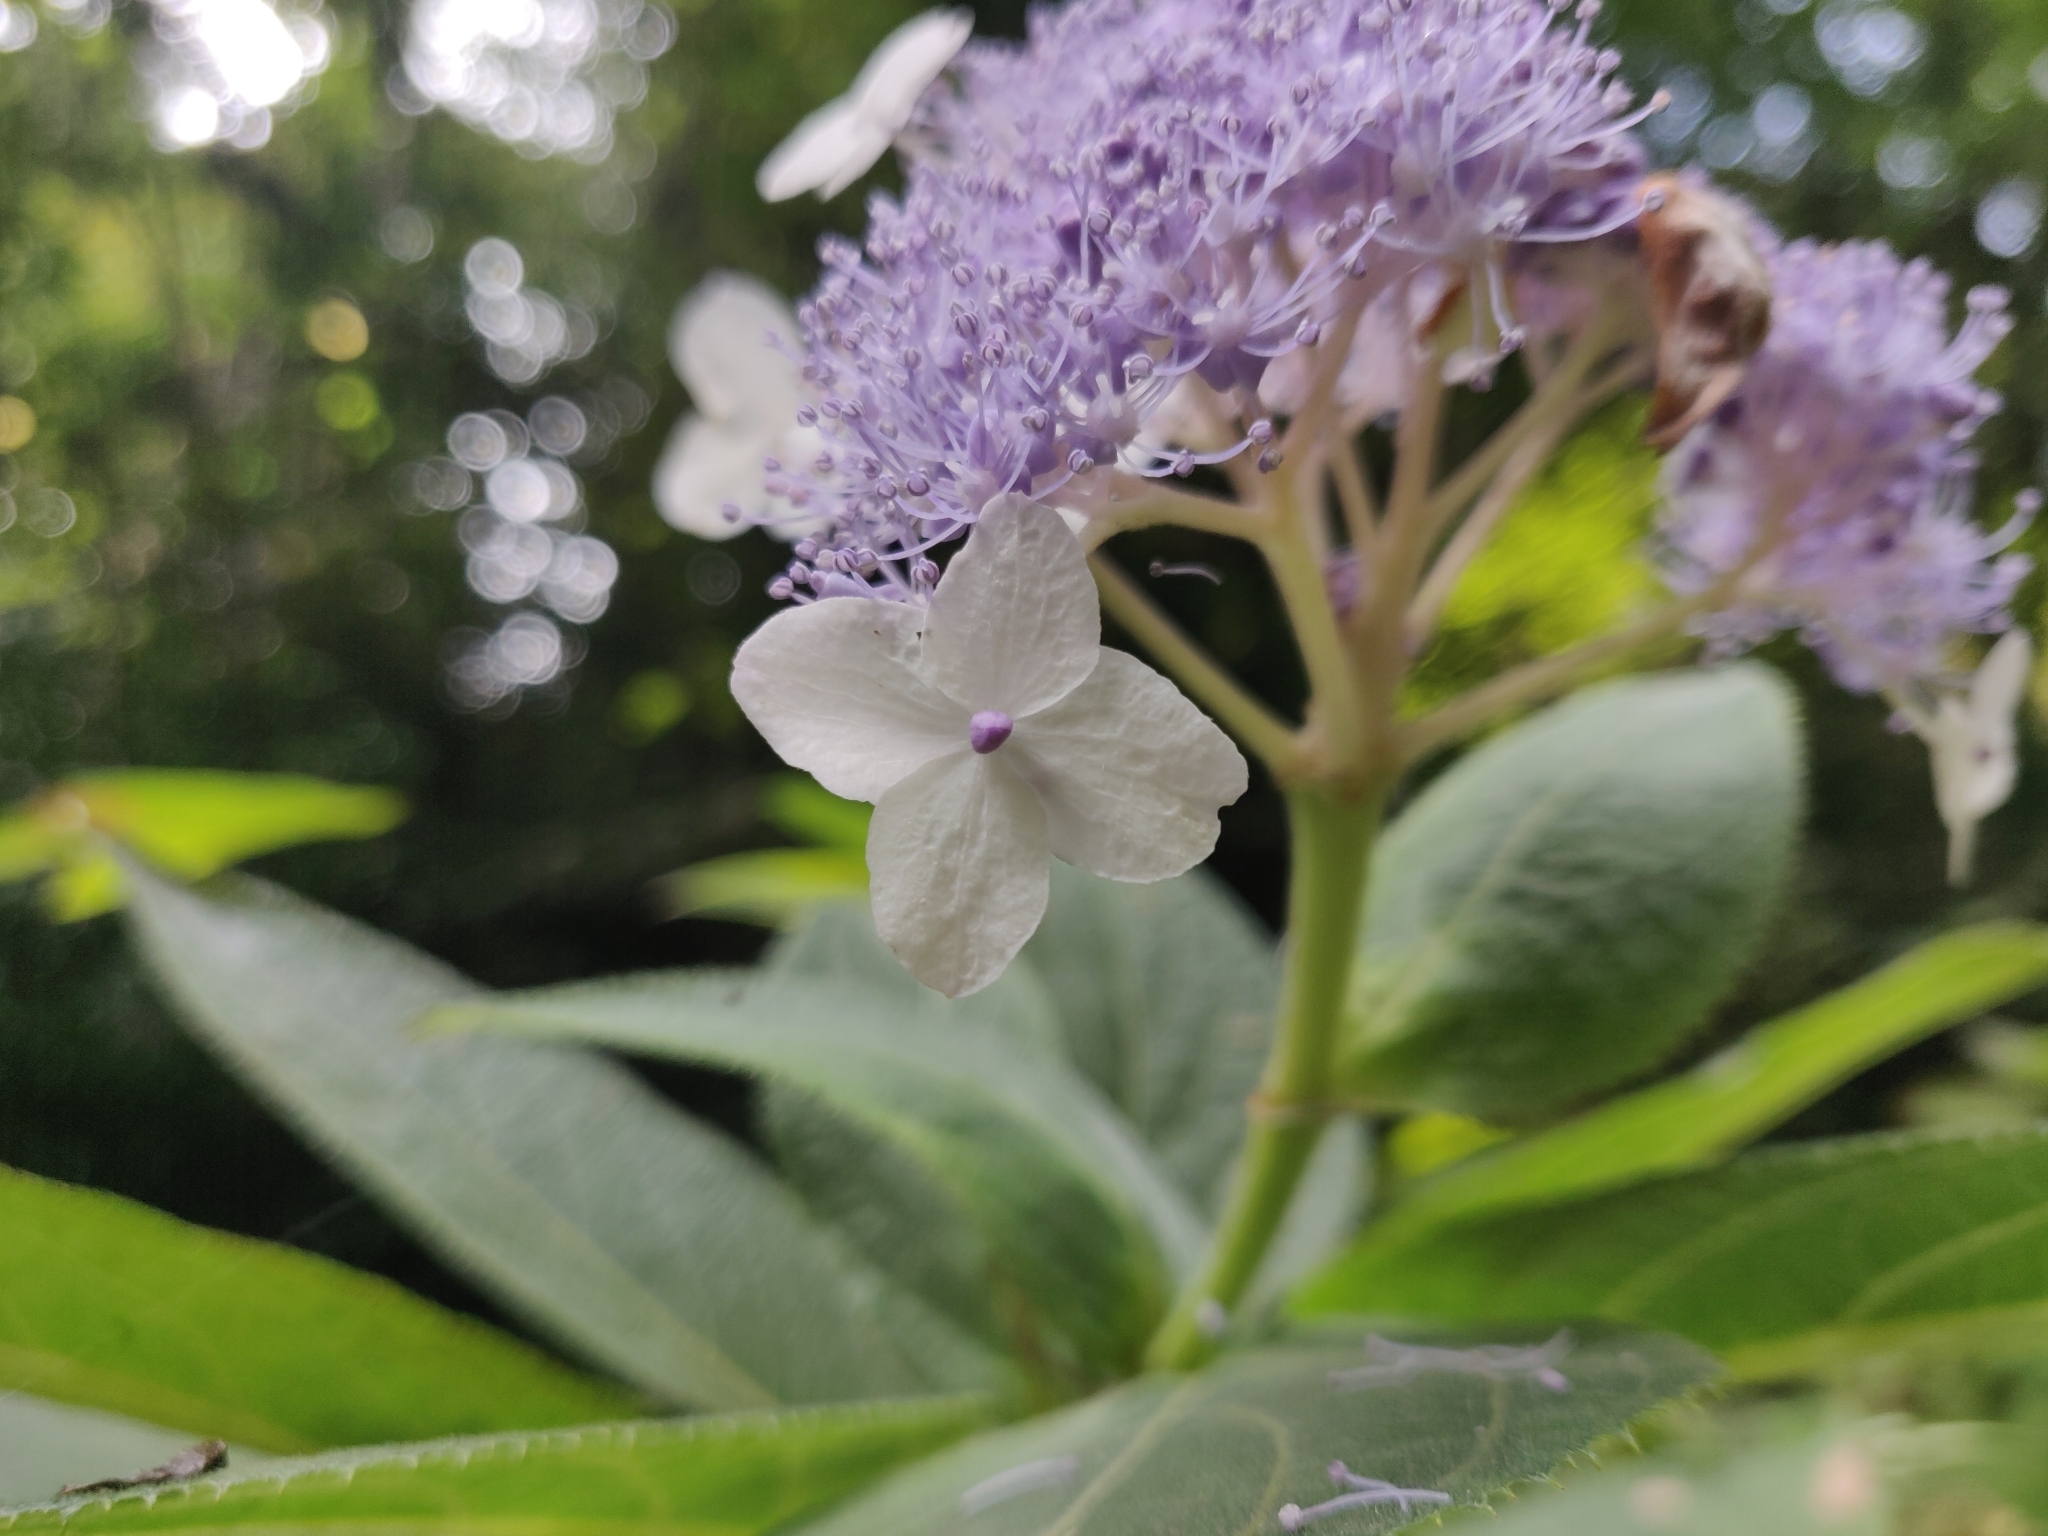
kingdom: Plantae
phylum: Tracheophyta
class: Magnoliopsida
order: Cornales
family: Hydrangeaceae
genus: Hydrangea
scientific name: Hydrangea involucrata
